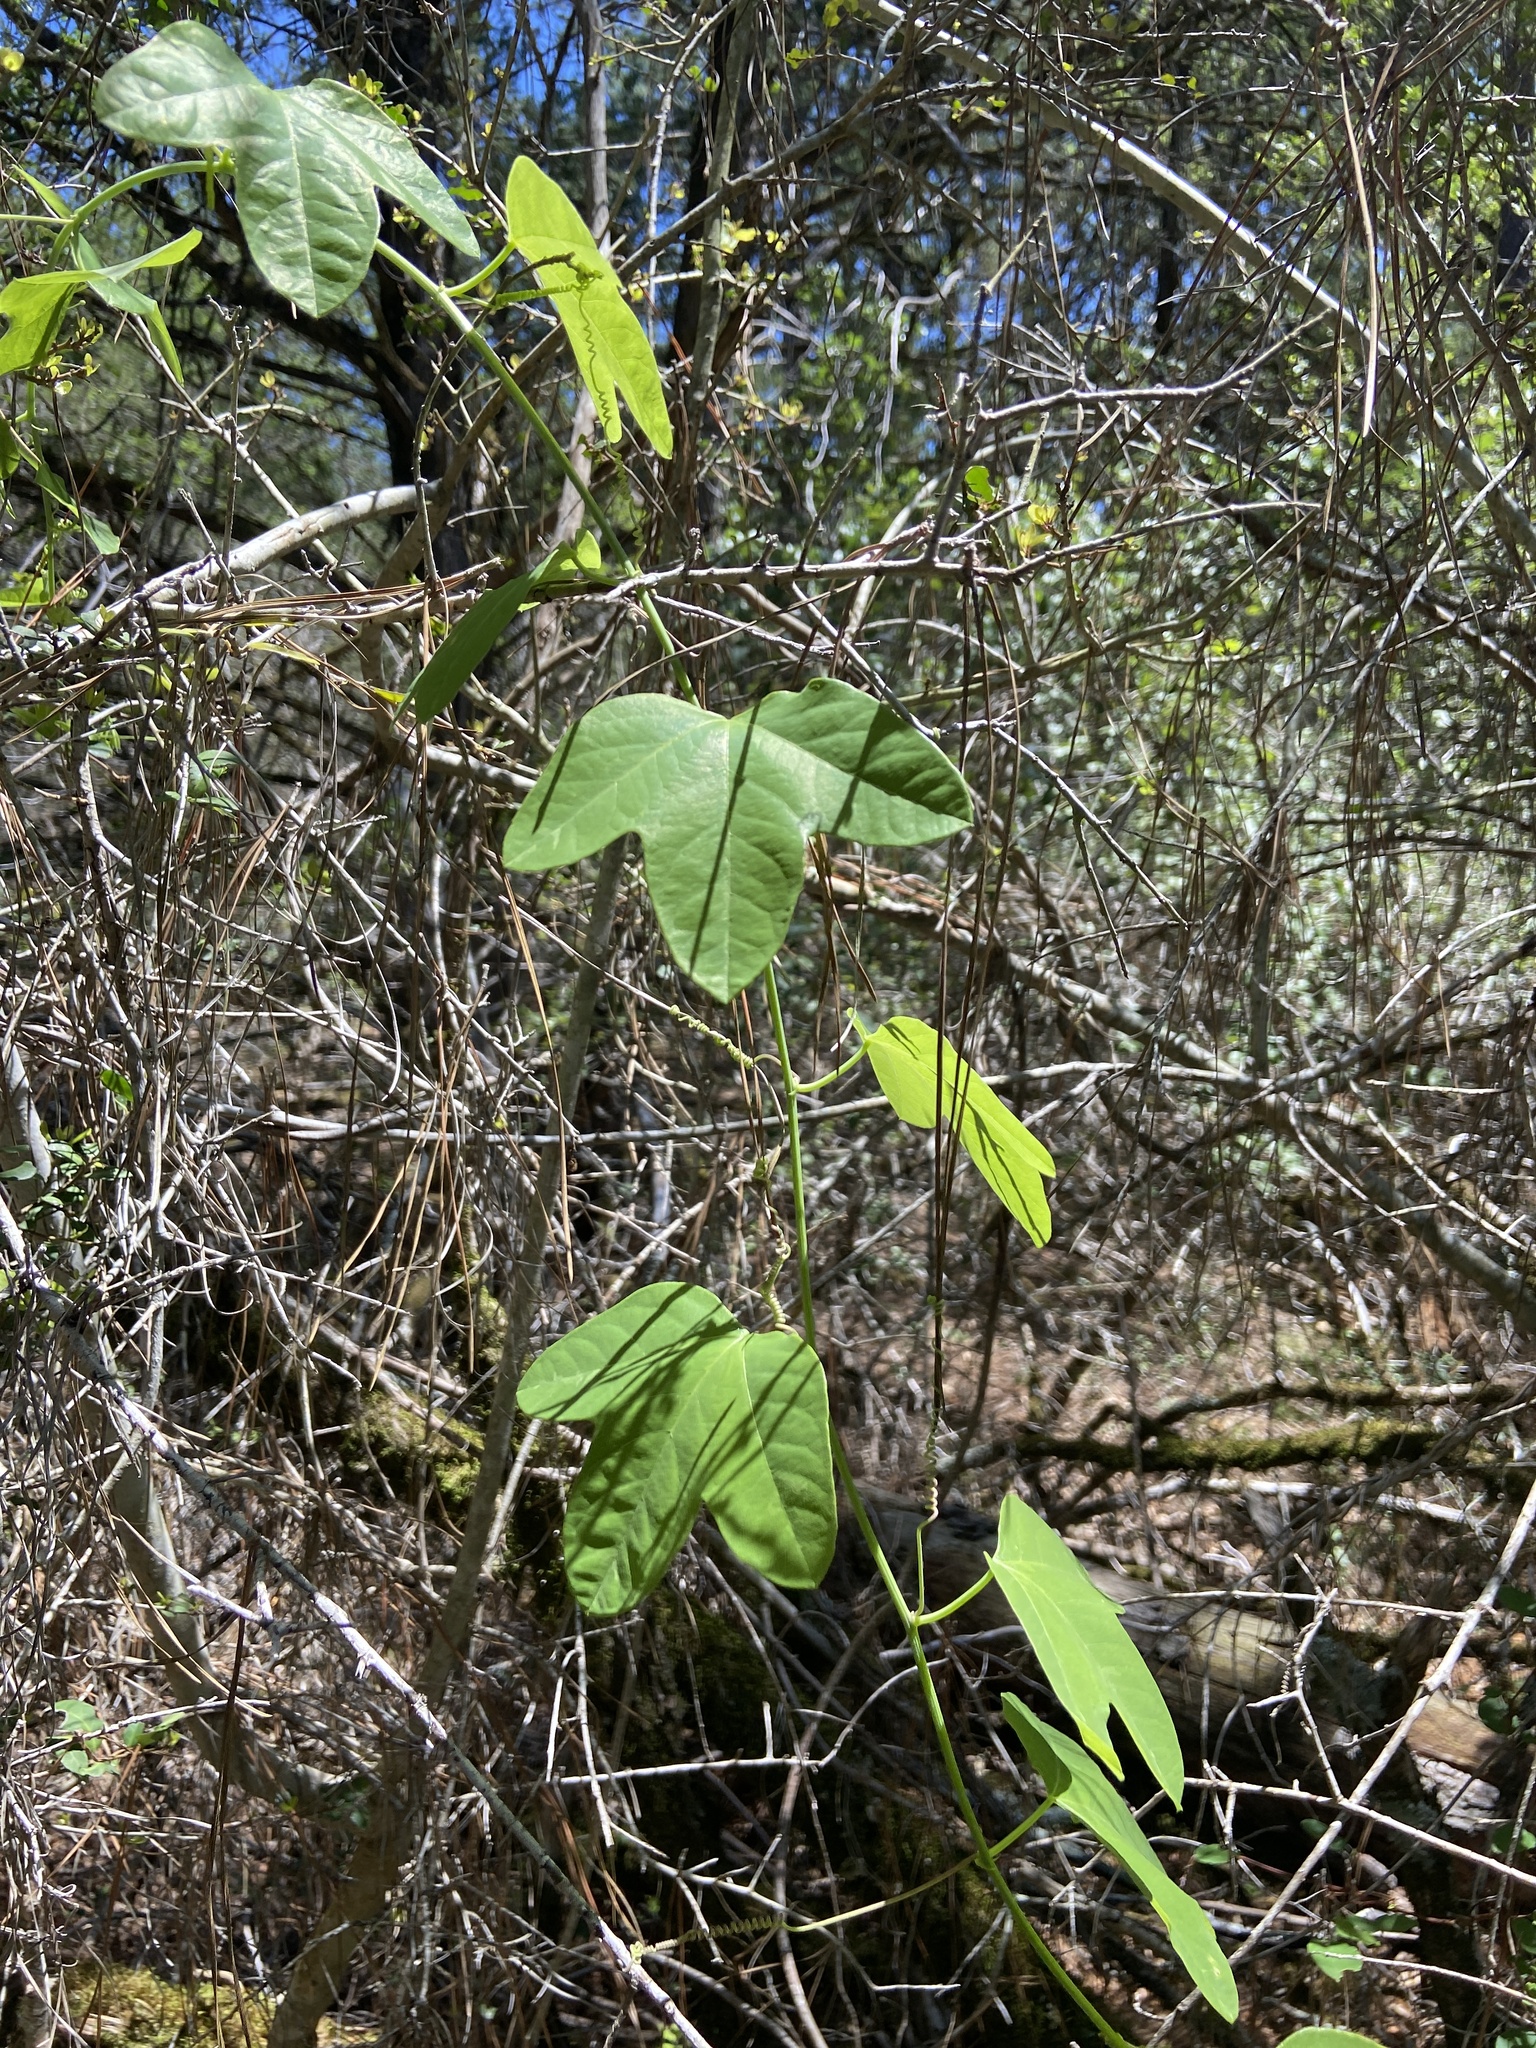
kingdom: Plantae
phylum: Tracheophyta
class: Magnoliopsida
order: Malpighiales
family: Passifloraceae
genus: Passiflora
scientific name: Passiflora lutea
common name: Yellow passionflower
